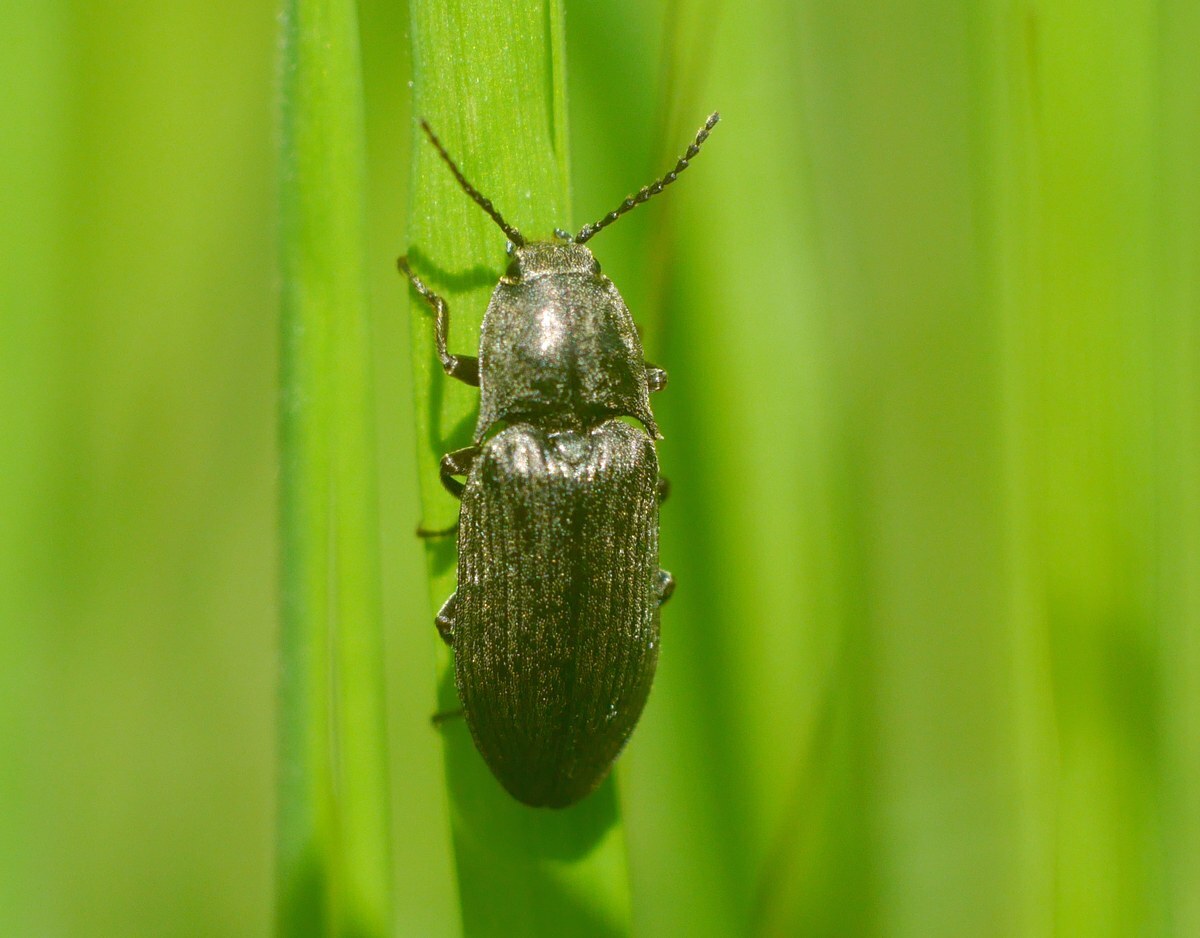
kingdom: Animalia
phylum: Arthropoda
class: Insecta
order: Coleoptera
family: Elateridae
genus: Selatosomus
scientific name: Selatosomus latus
